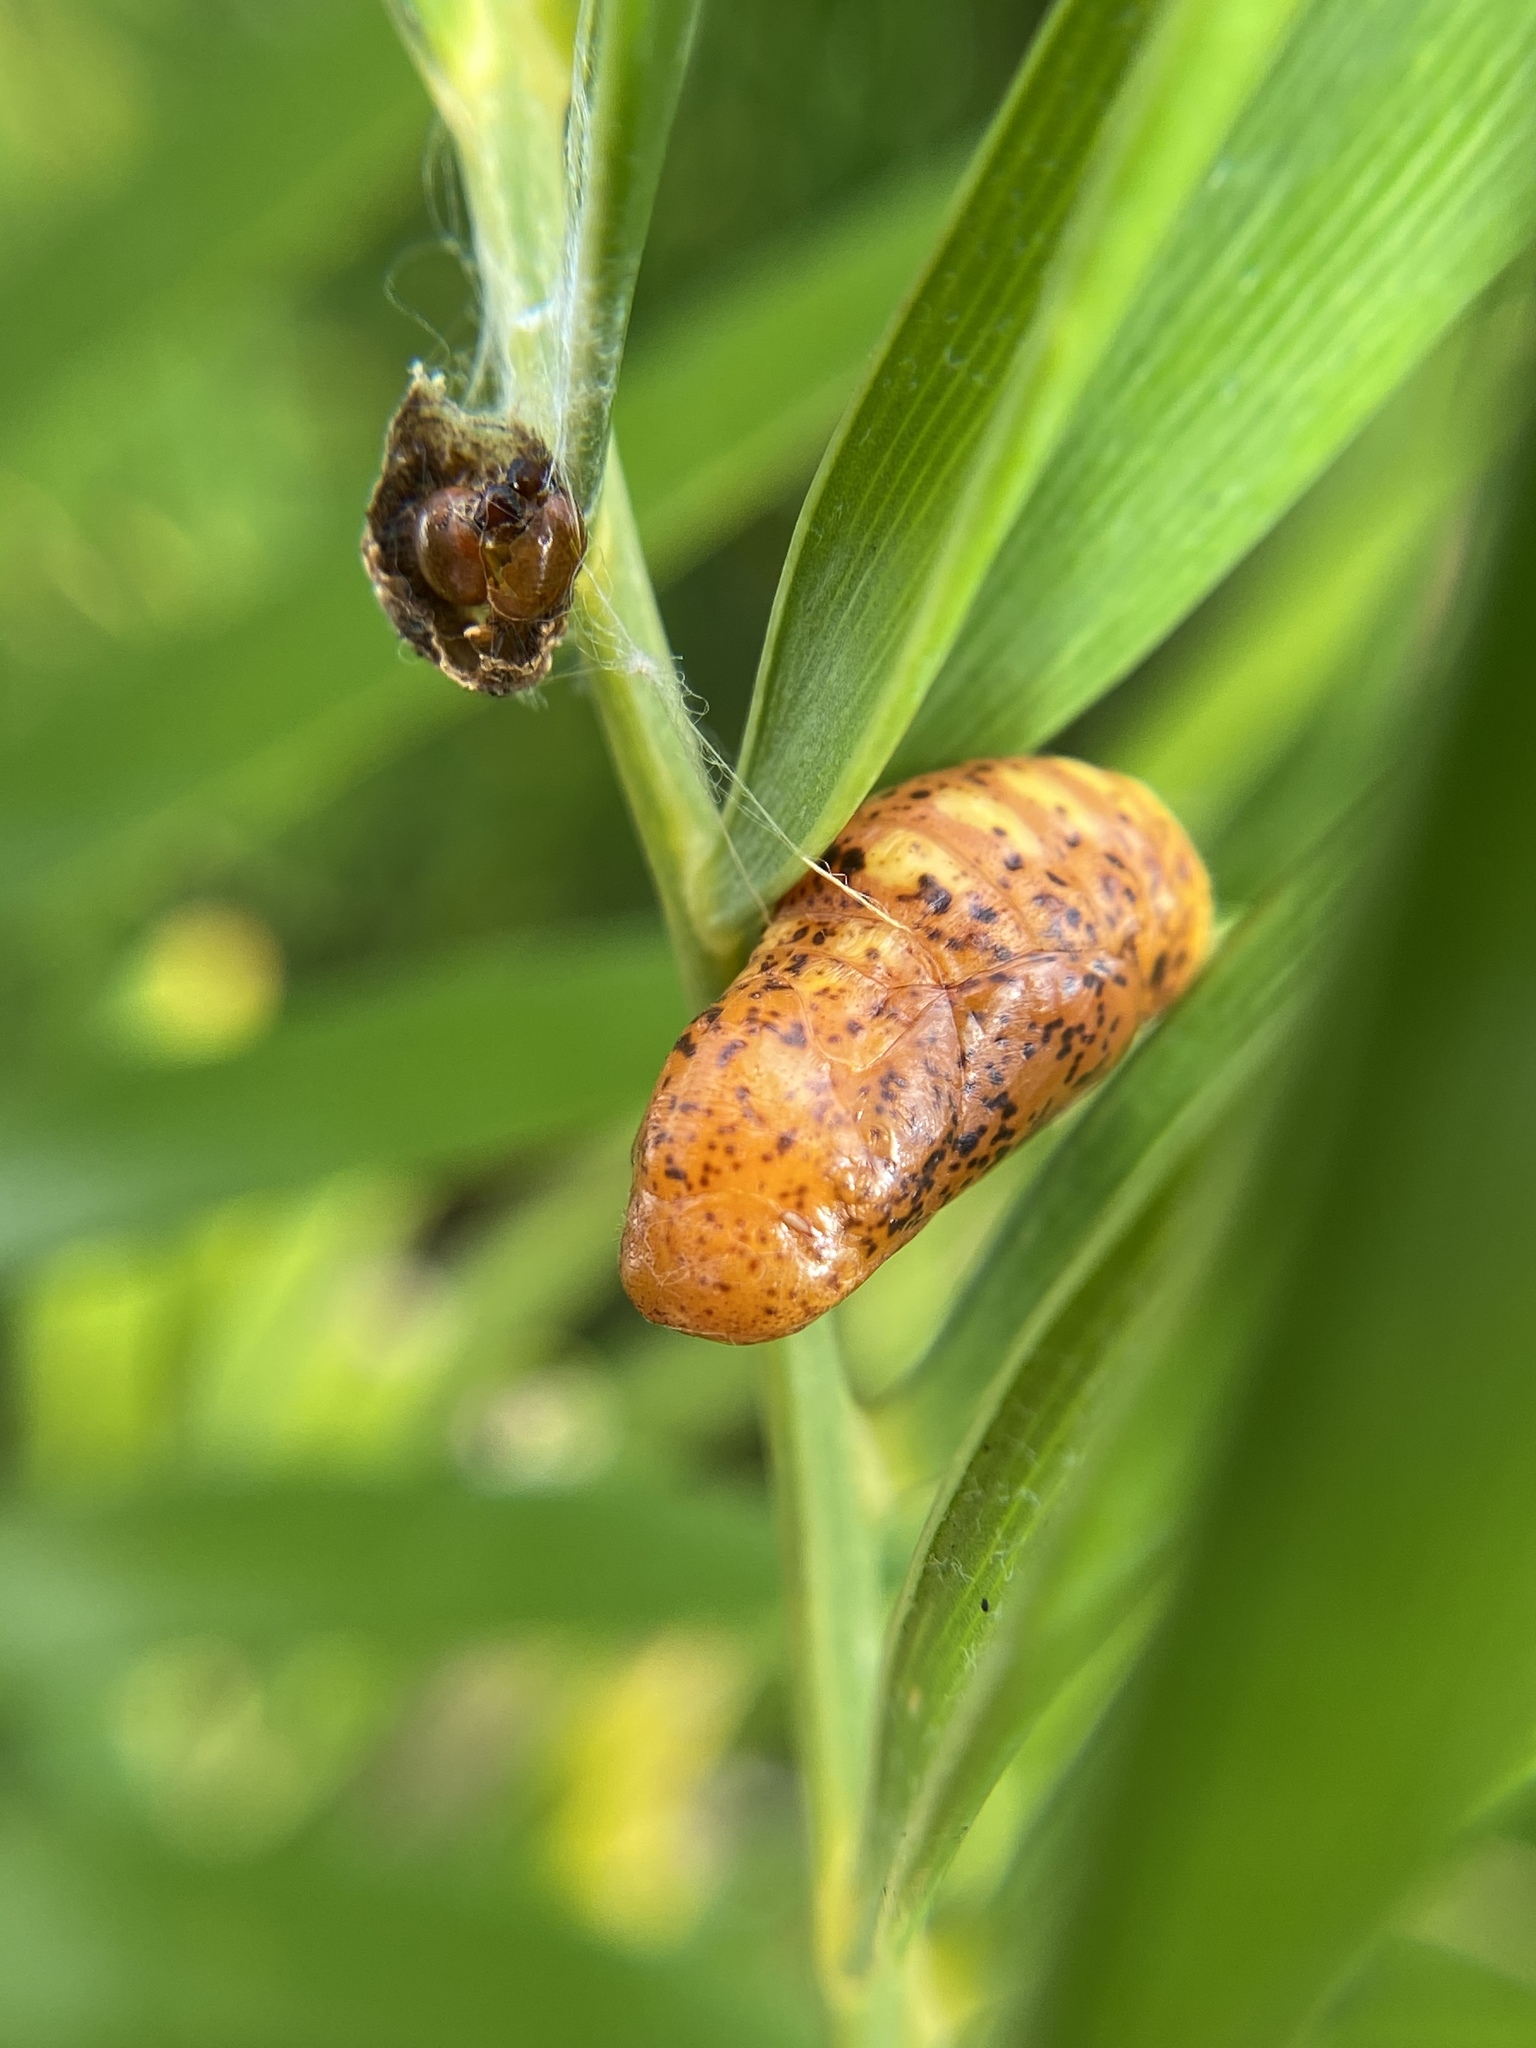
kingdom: Animalia
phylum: Arthropoda
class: Insecta
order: Lepidoptera
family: Lycaenidae
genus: Eumaeus
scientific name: Eumaeus atala
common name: Atala
